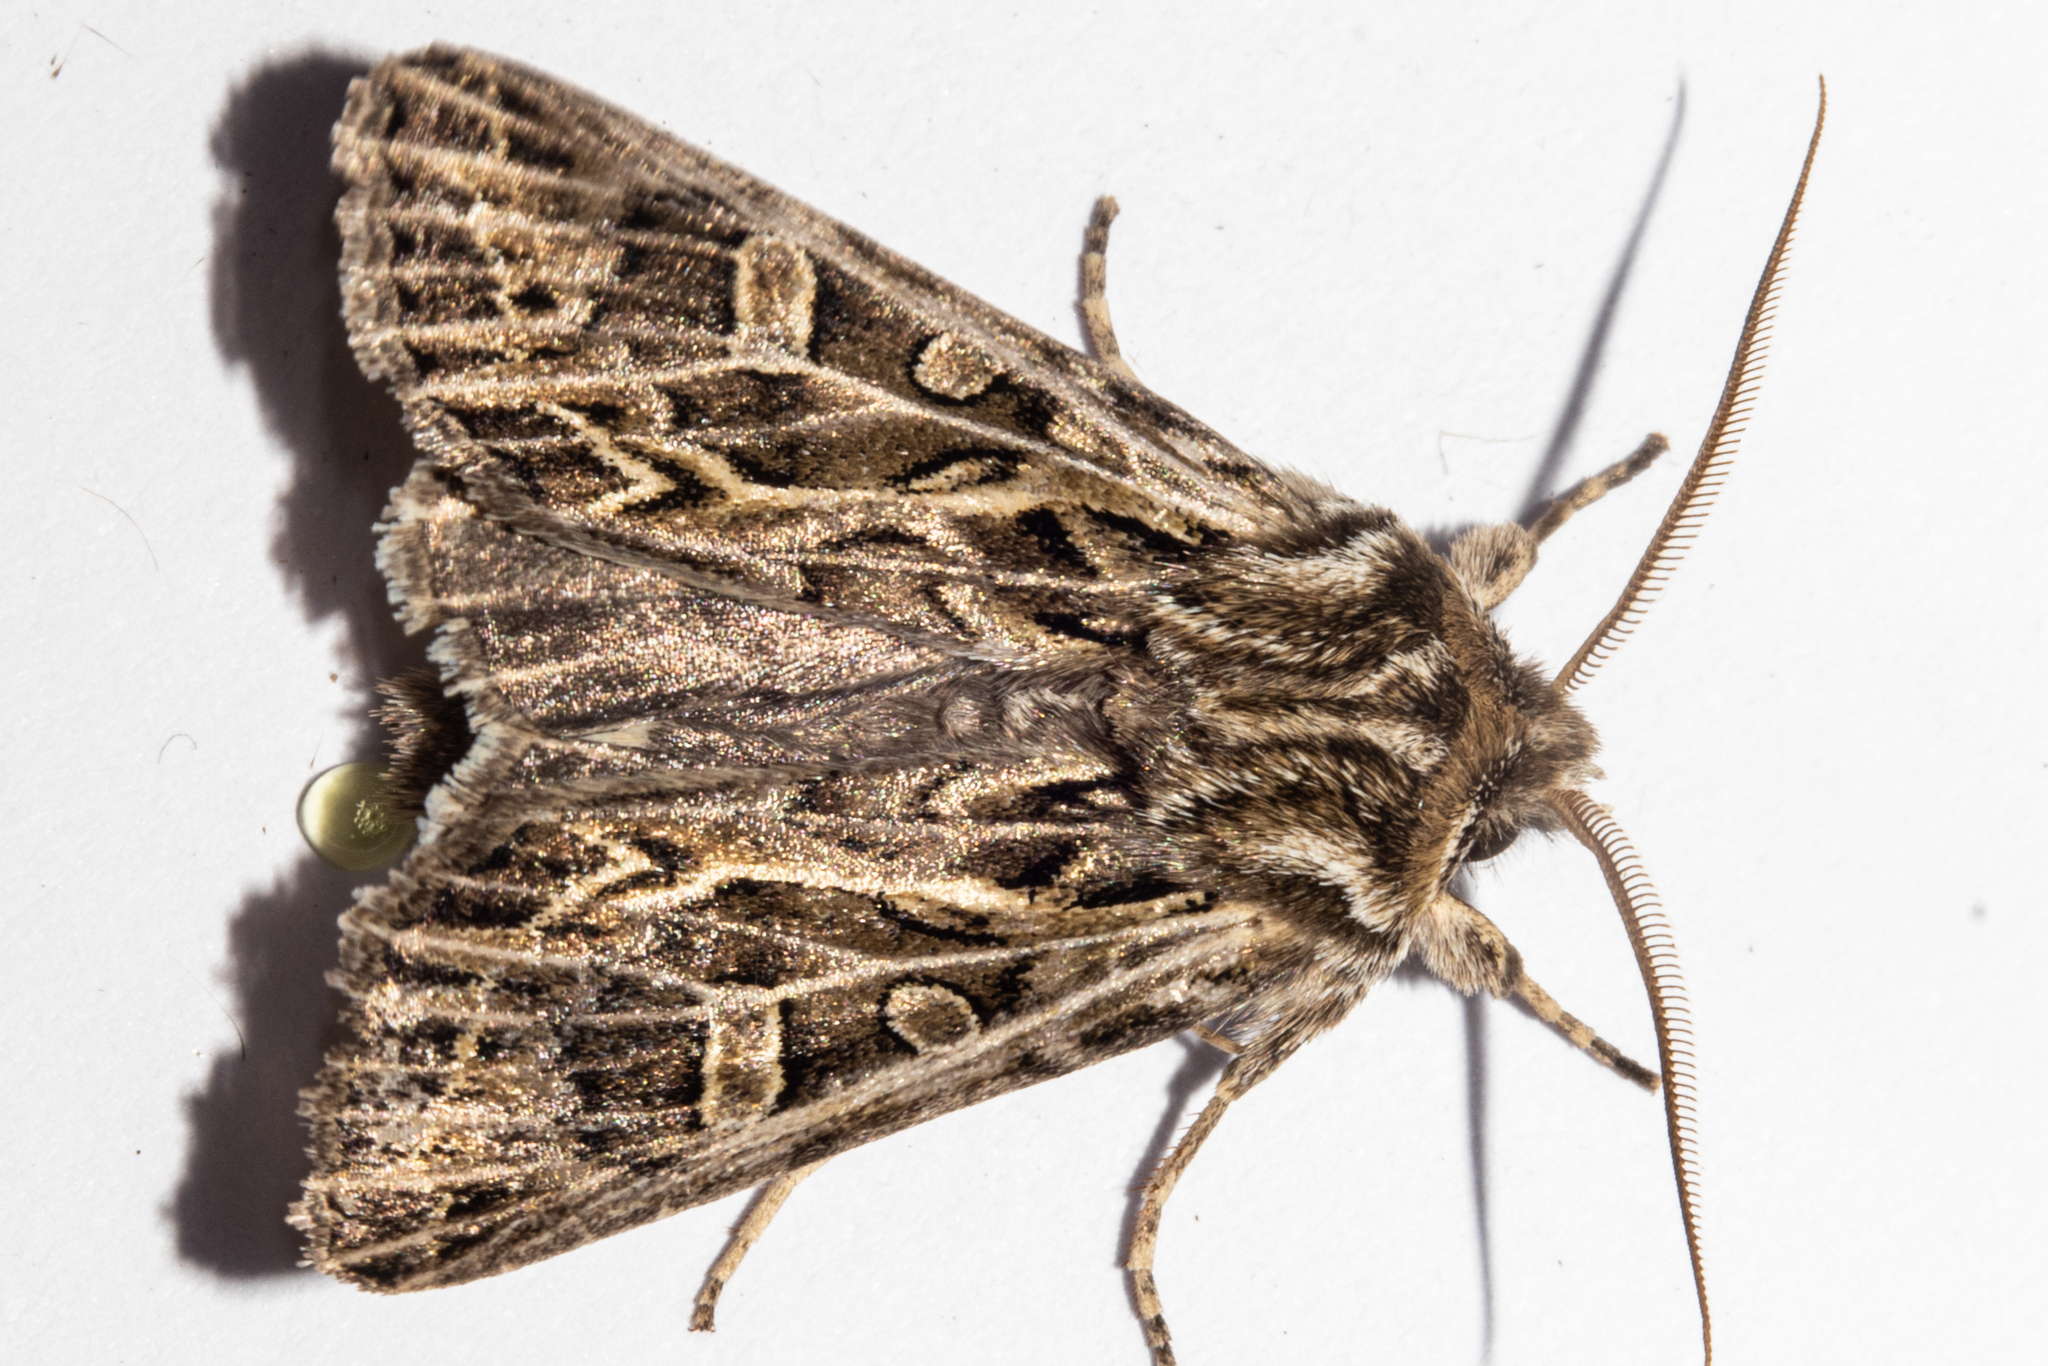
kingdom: Animalia
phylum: Arthropoda
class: Insecta
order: Lepidoptera
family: Noctuidae
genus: Ichneutica
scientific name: Ichneutica
